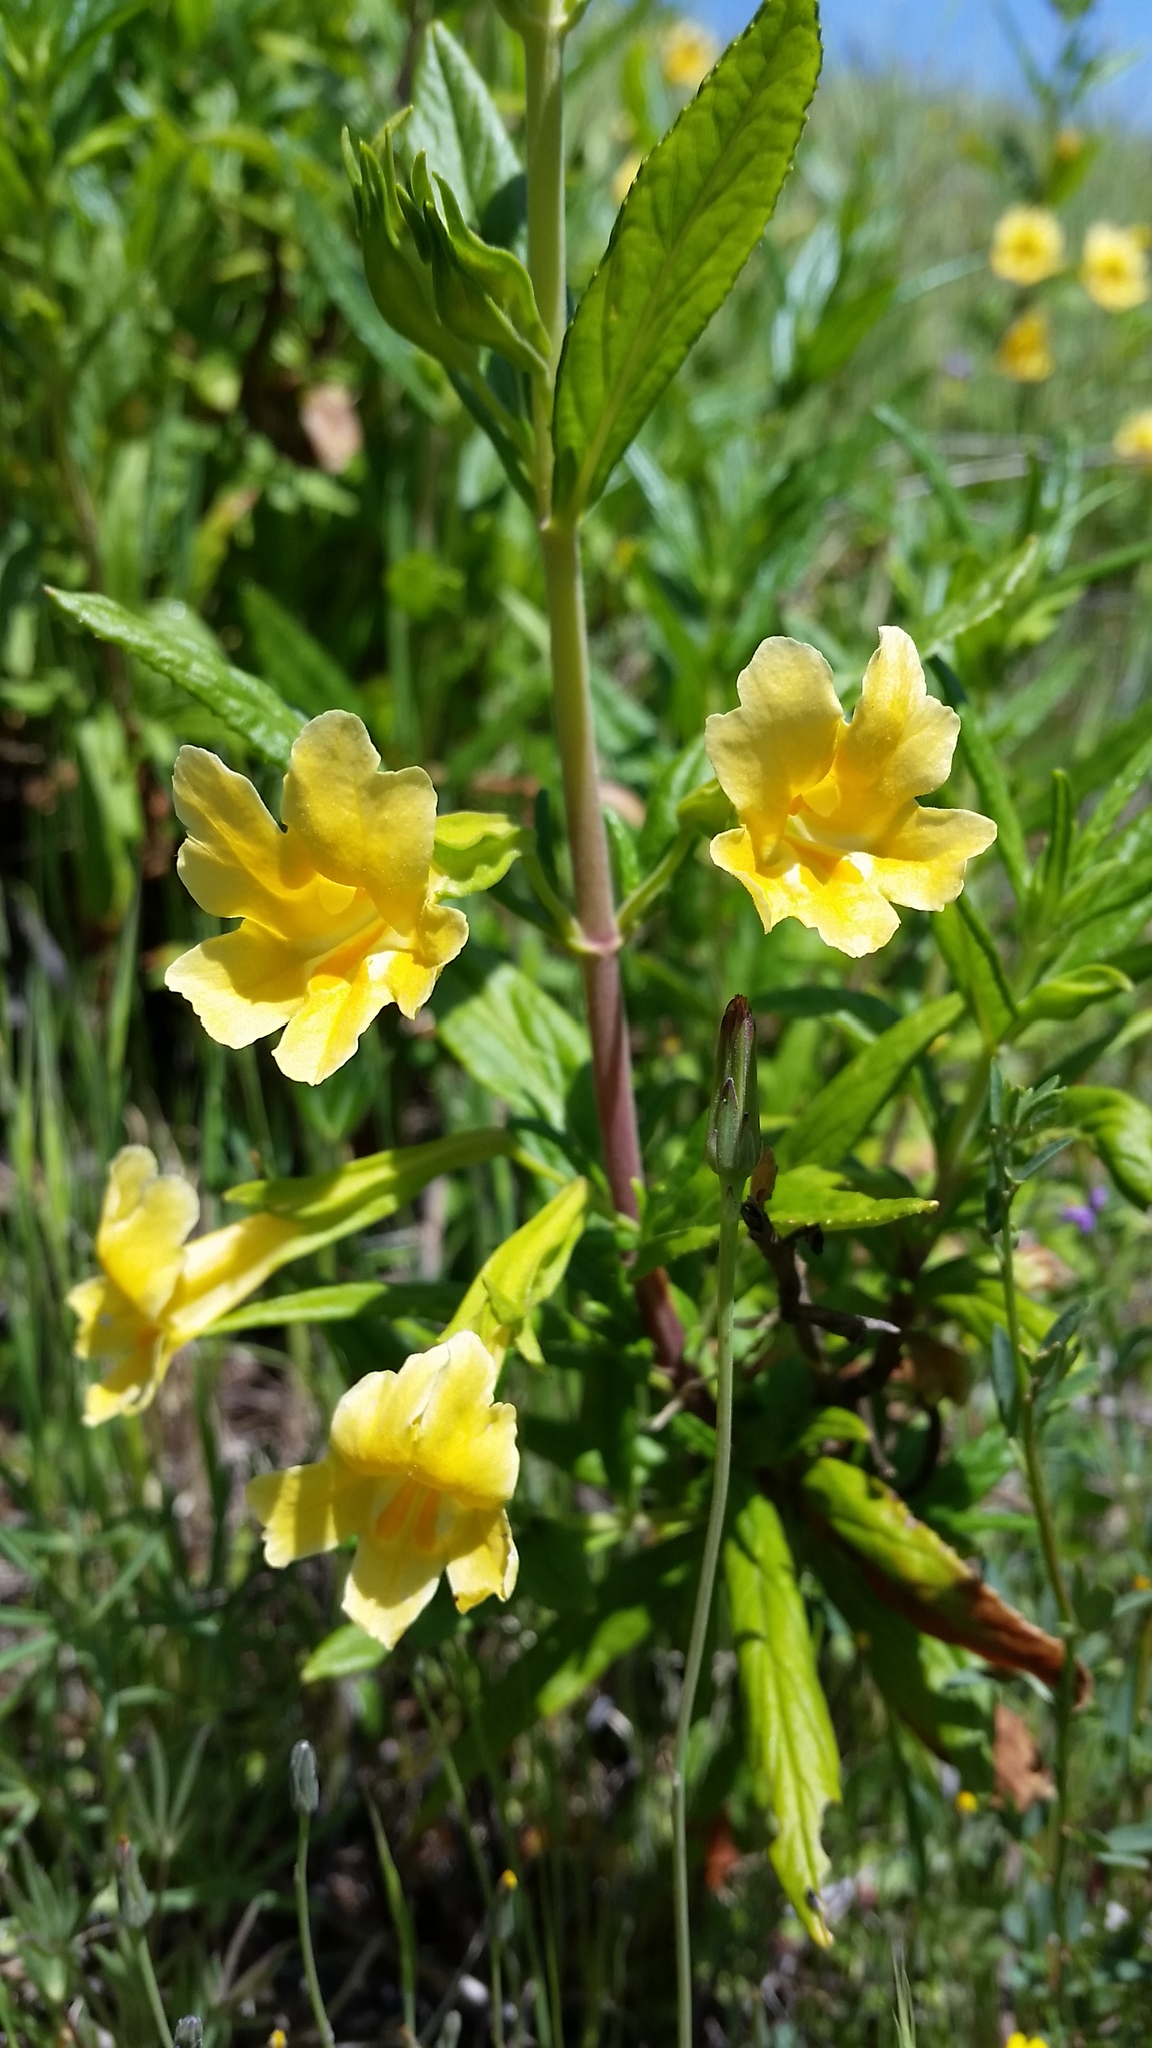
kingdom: Plantae
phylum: Tracheophyta
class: Magnoliopsida
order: Lamiales
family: Phrymaceae
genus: Diplacus
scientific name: Diplacus aurantiacus
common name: Bush monkey-flower
